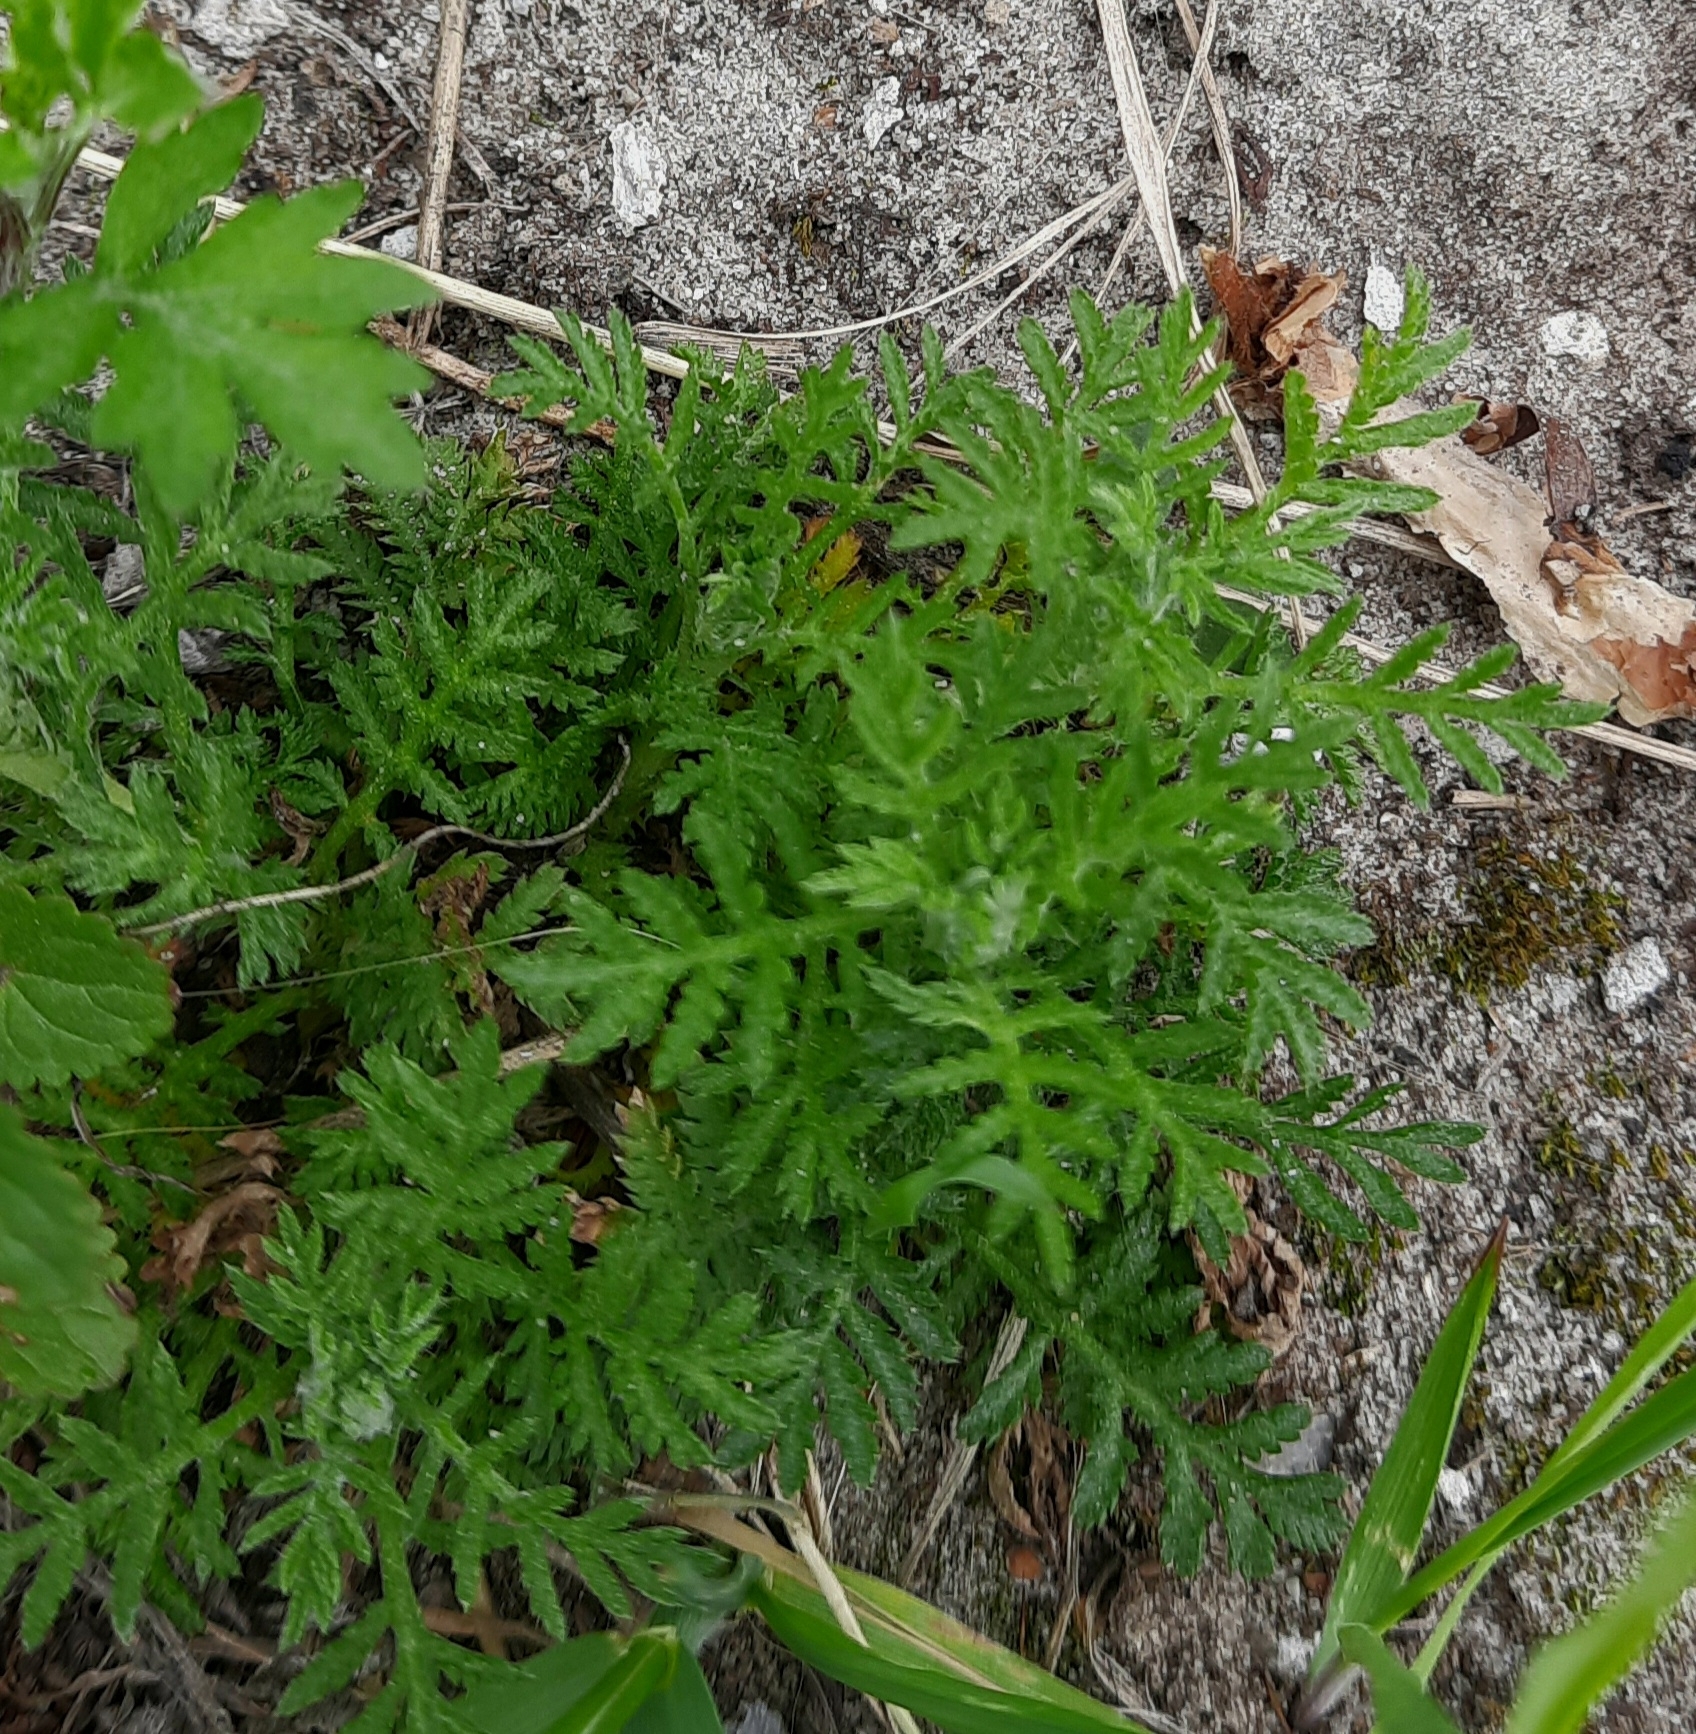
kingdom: Plantae
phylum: Tracheophyta
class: Magnoliopsida
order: Asterales
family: Asteraceae
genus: Cota
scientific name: Cota tinctoria
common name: Golden chamomile
